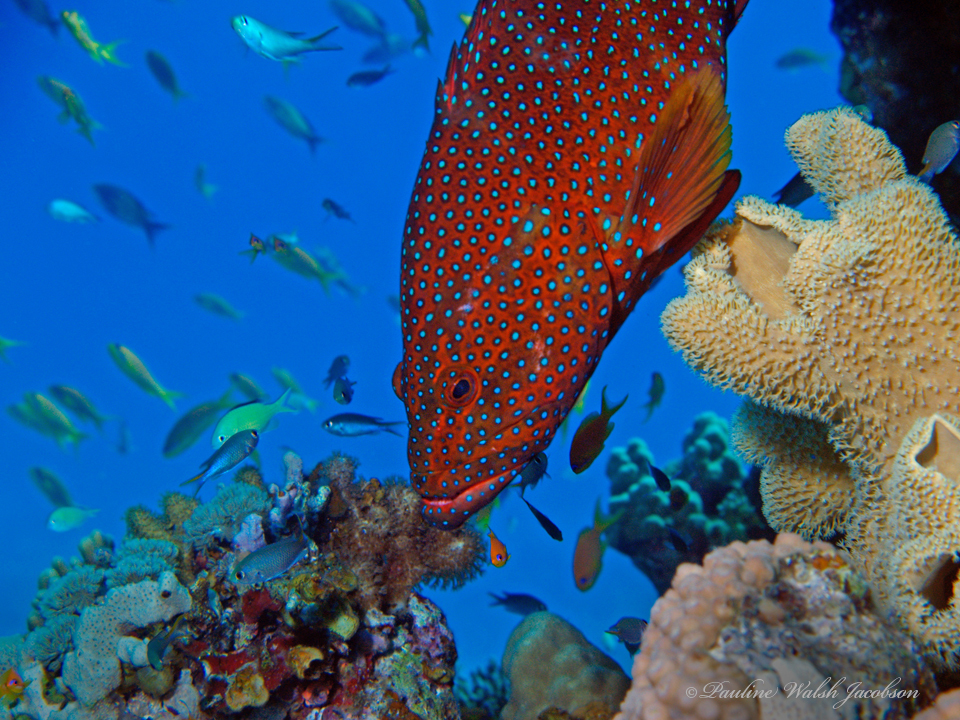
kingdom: Animalia
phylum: Chordata
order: Perciformes
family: Serranidae
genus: Cephalopholis
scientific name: Cephalopholis miniata
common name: Coral hind
